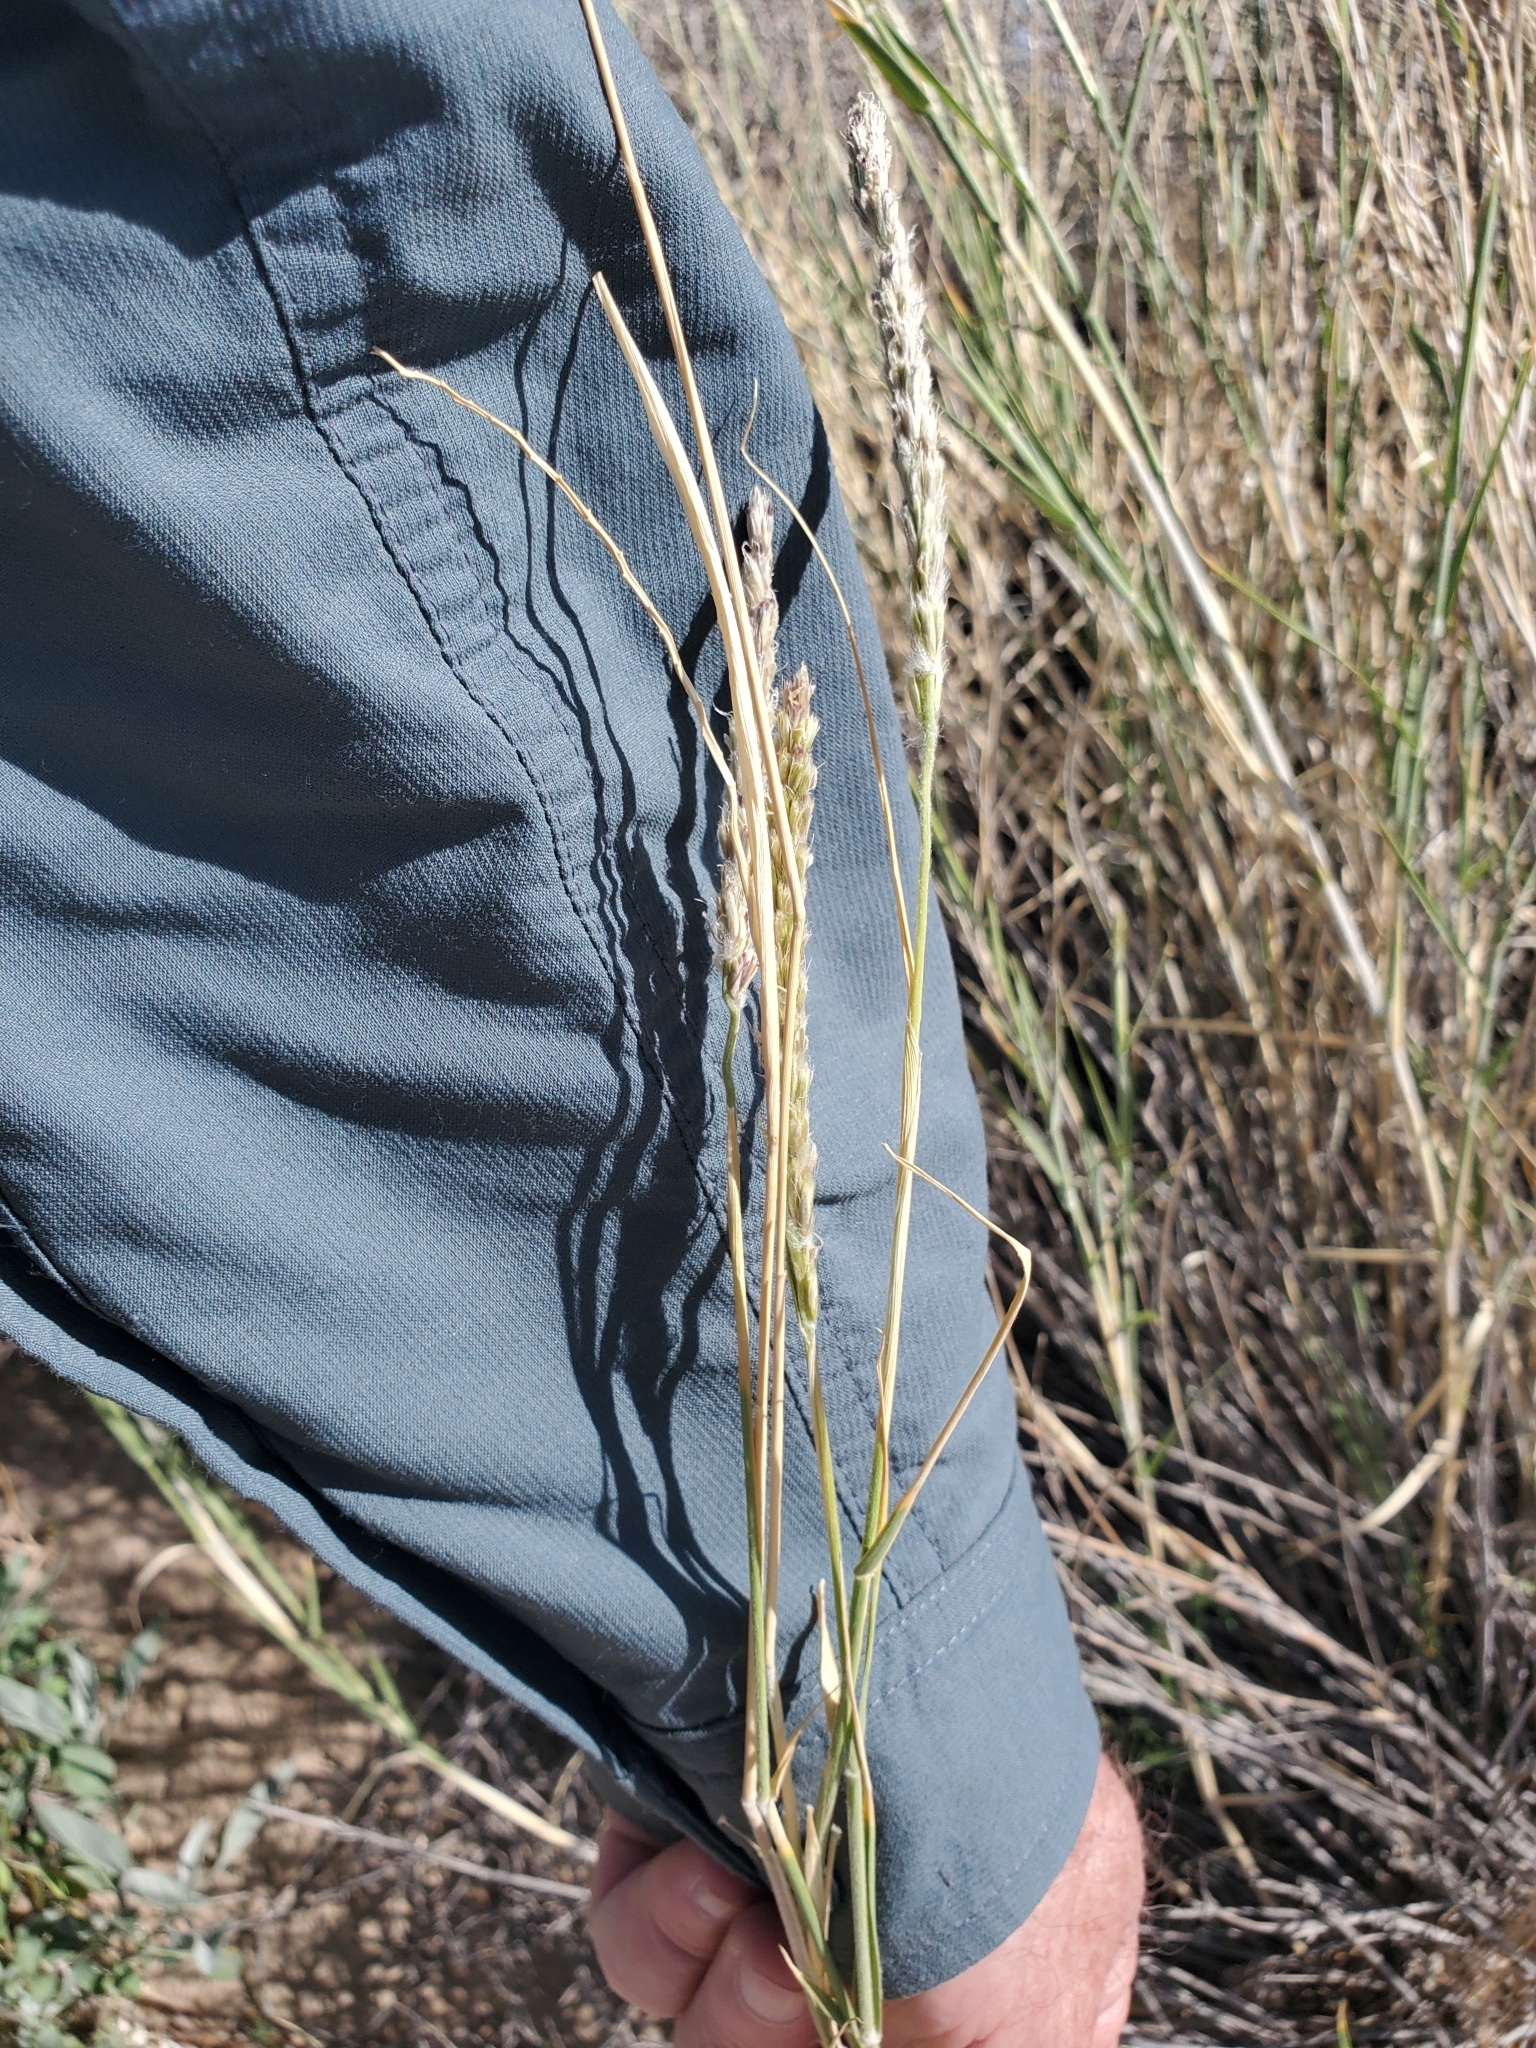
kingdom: Plantae
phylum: Tracheophyta
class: Liliopsida
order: Poales
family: Poaceae
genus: Hilaria
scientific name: Hilaria rigida
